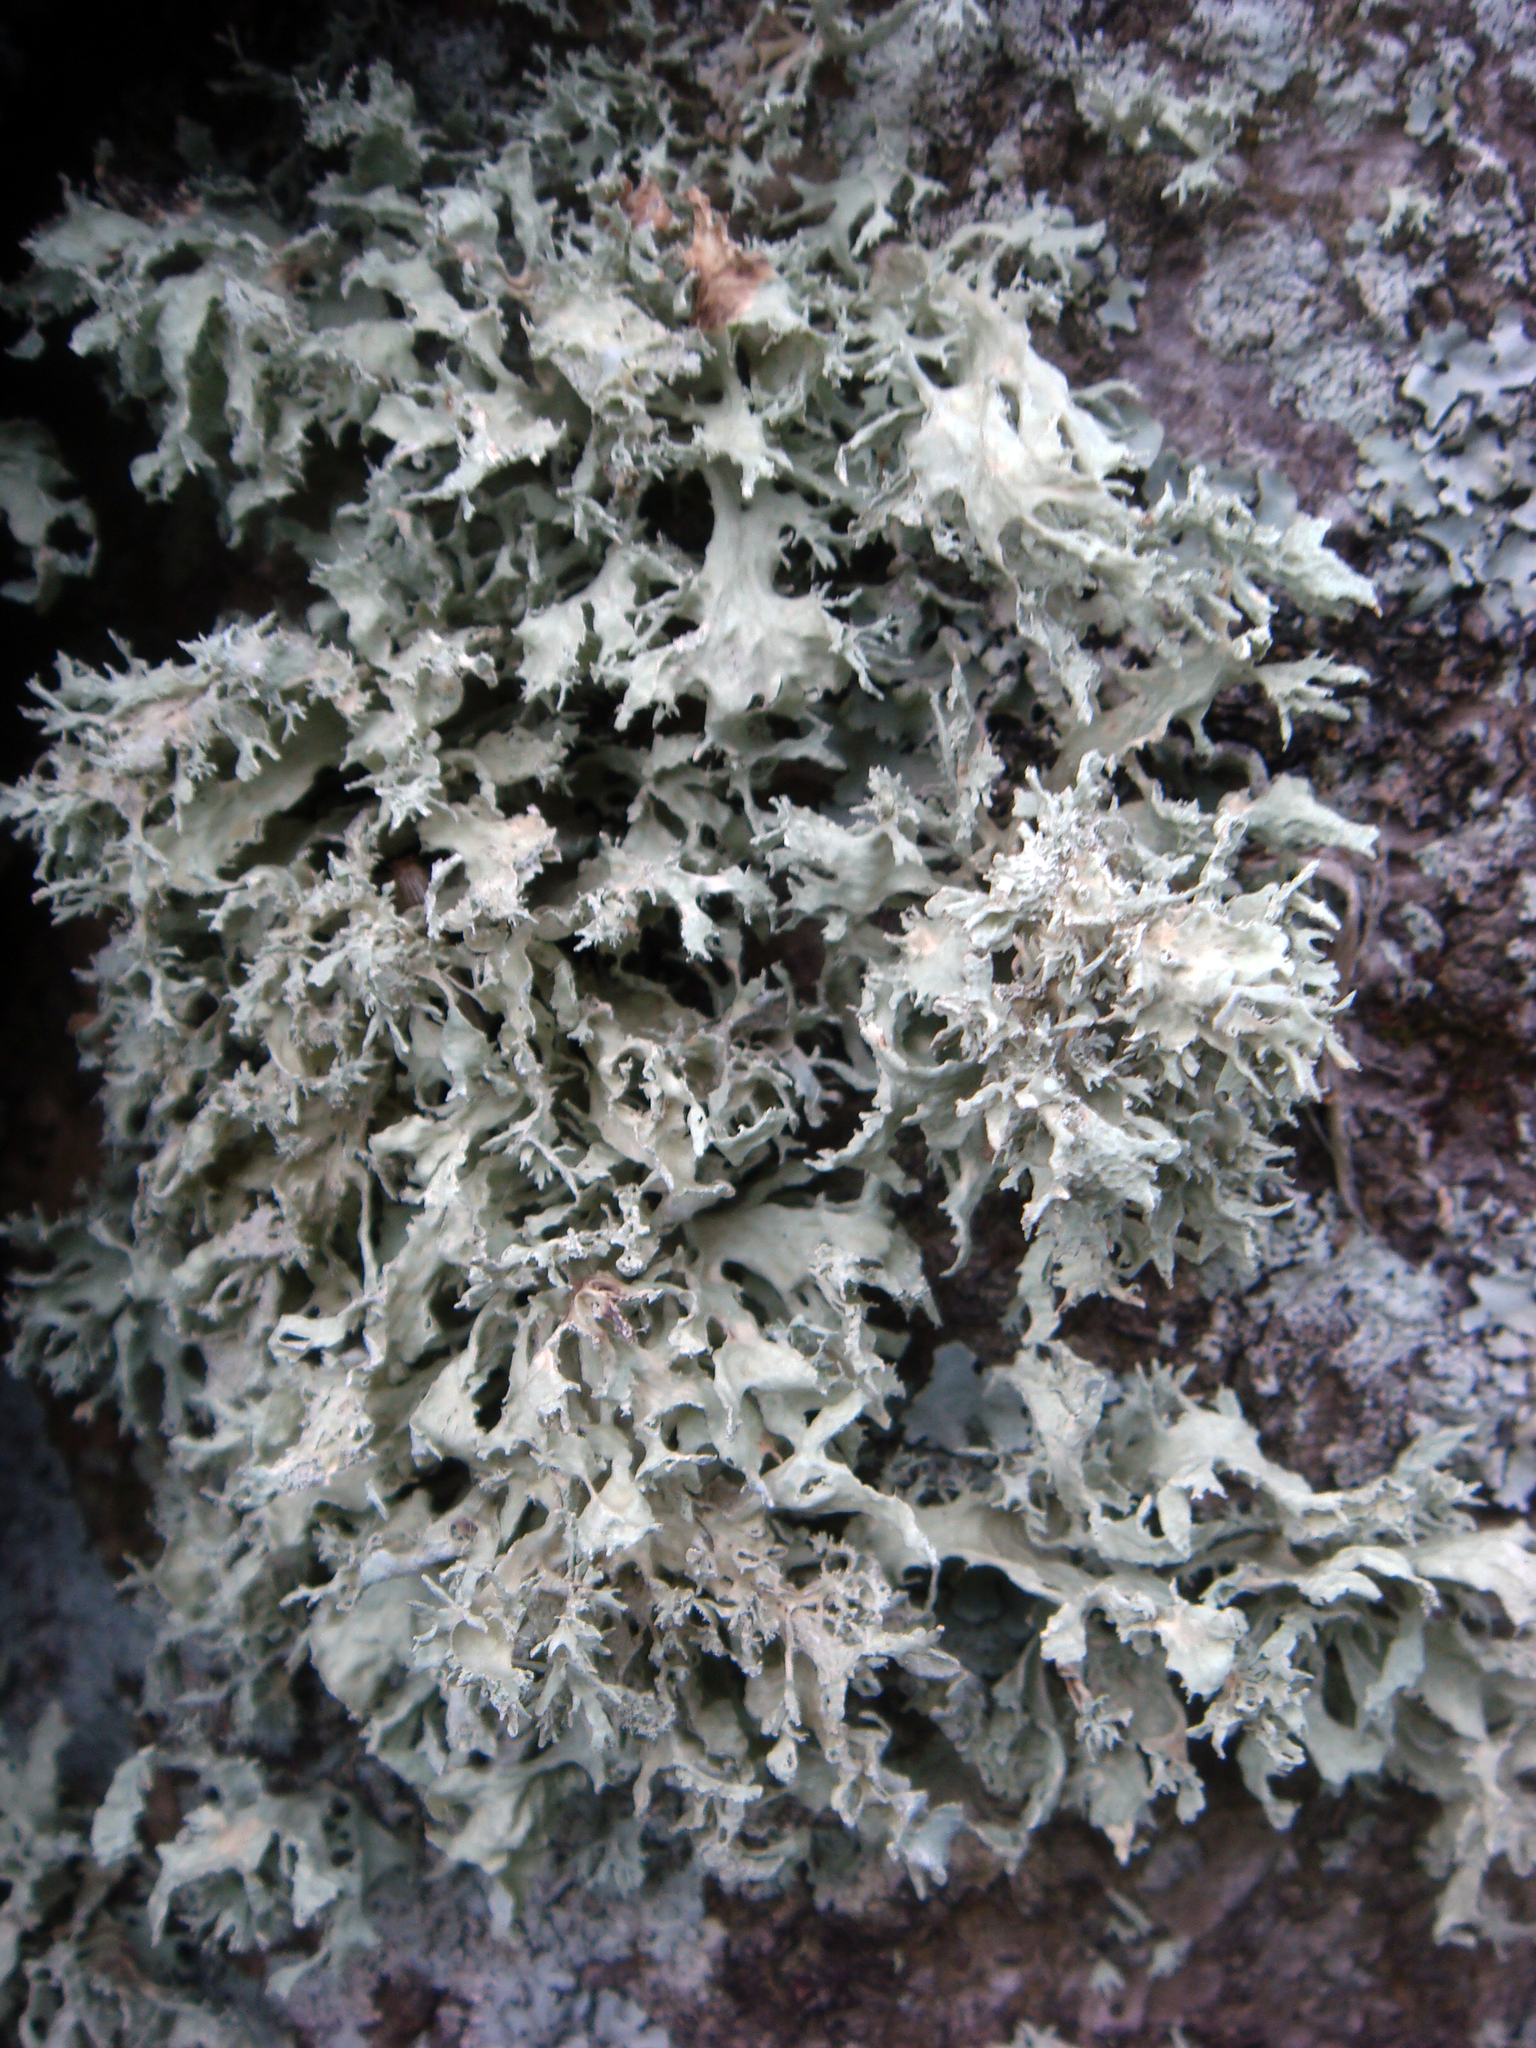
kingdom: Fungi
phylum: Ascomycota
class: Lecanoromycetes
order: Lecanorales
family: Ramalinaceae
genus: Ramalina
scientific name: Ramalina canariensis
